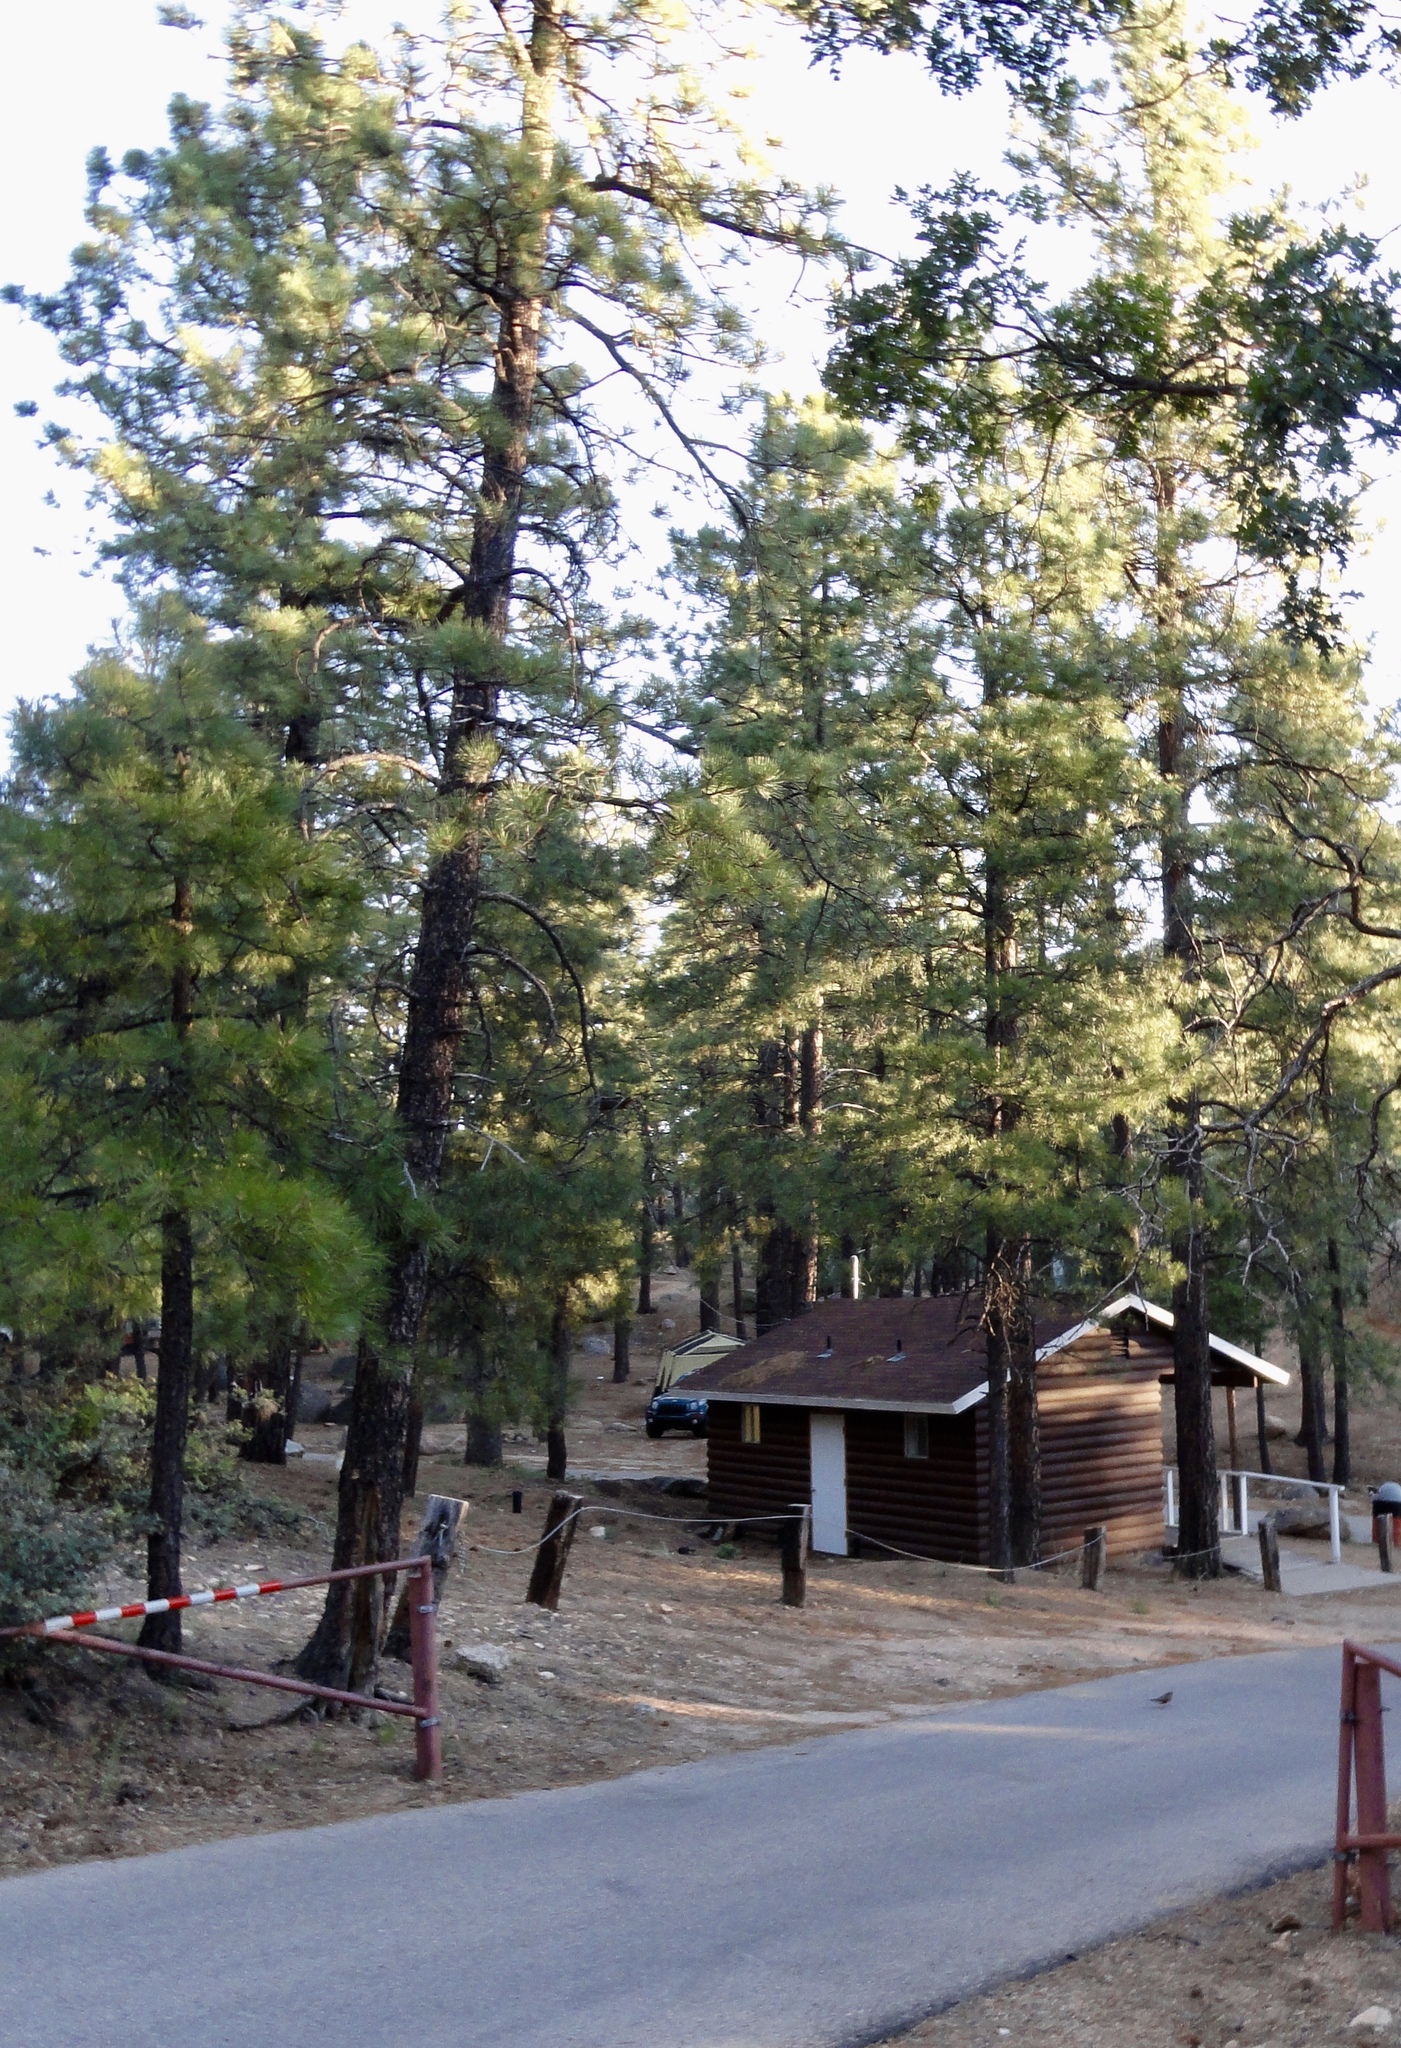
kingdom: Plantae
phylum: Tracheophyta
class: Pinopsida
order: Pinales
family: Pinaceae
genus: Pinus
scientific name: Pinus ponderosa
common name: Western yellow-pine
